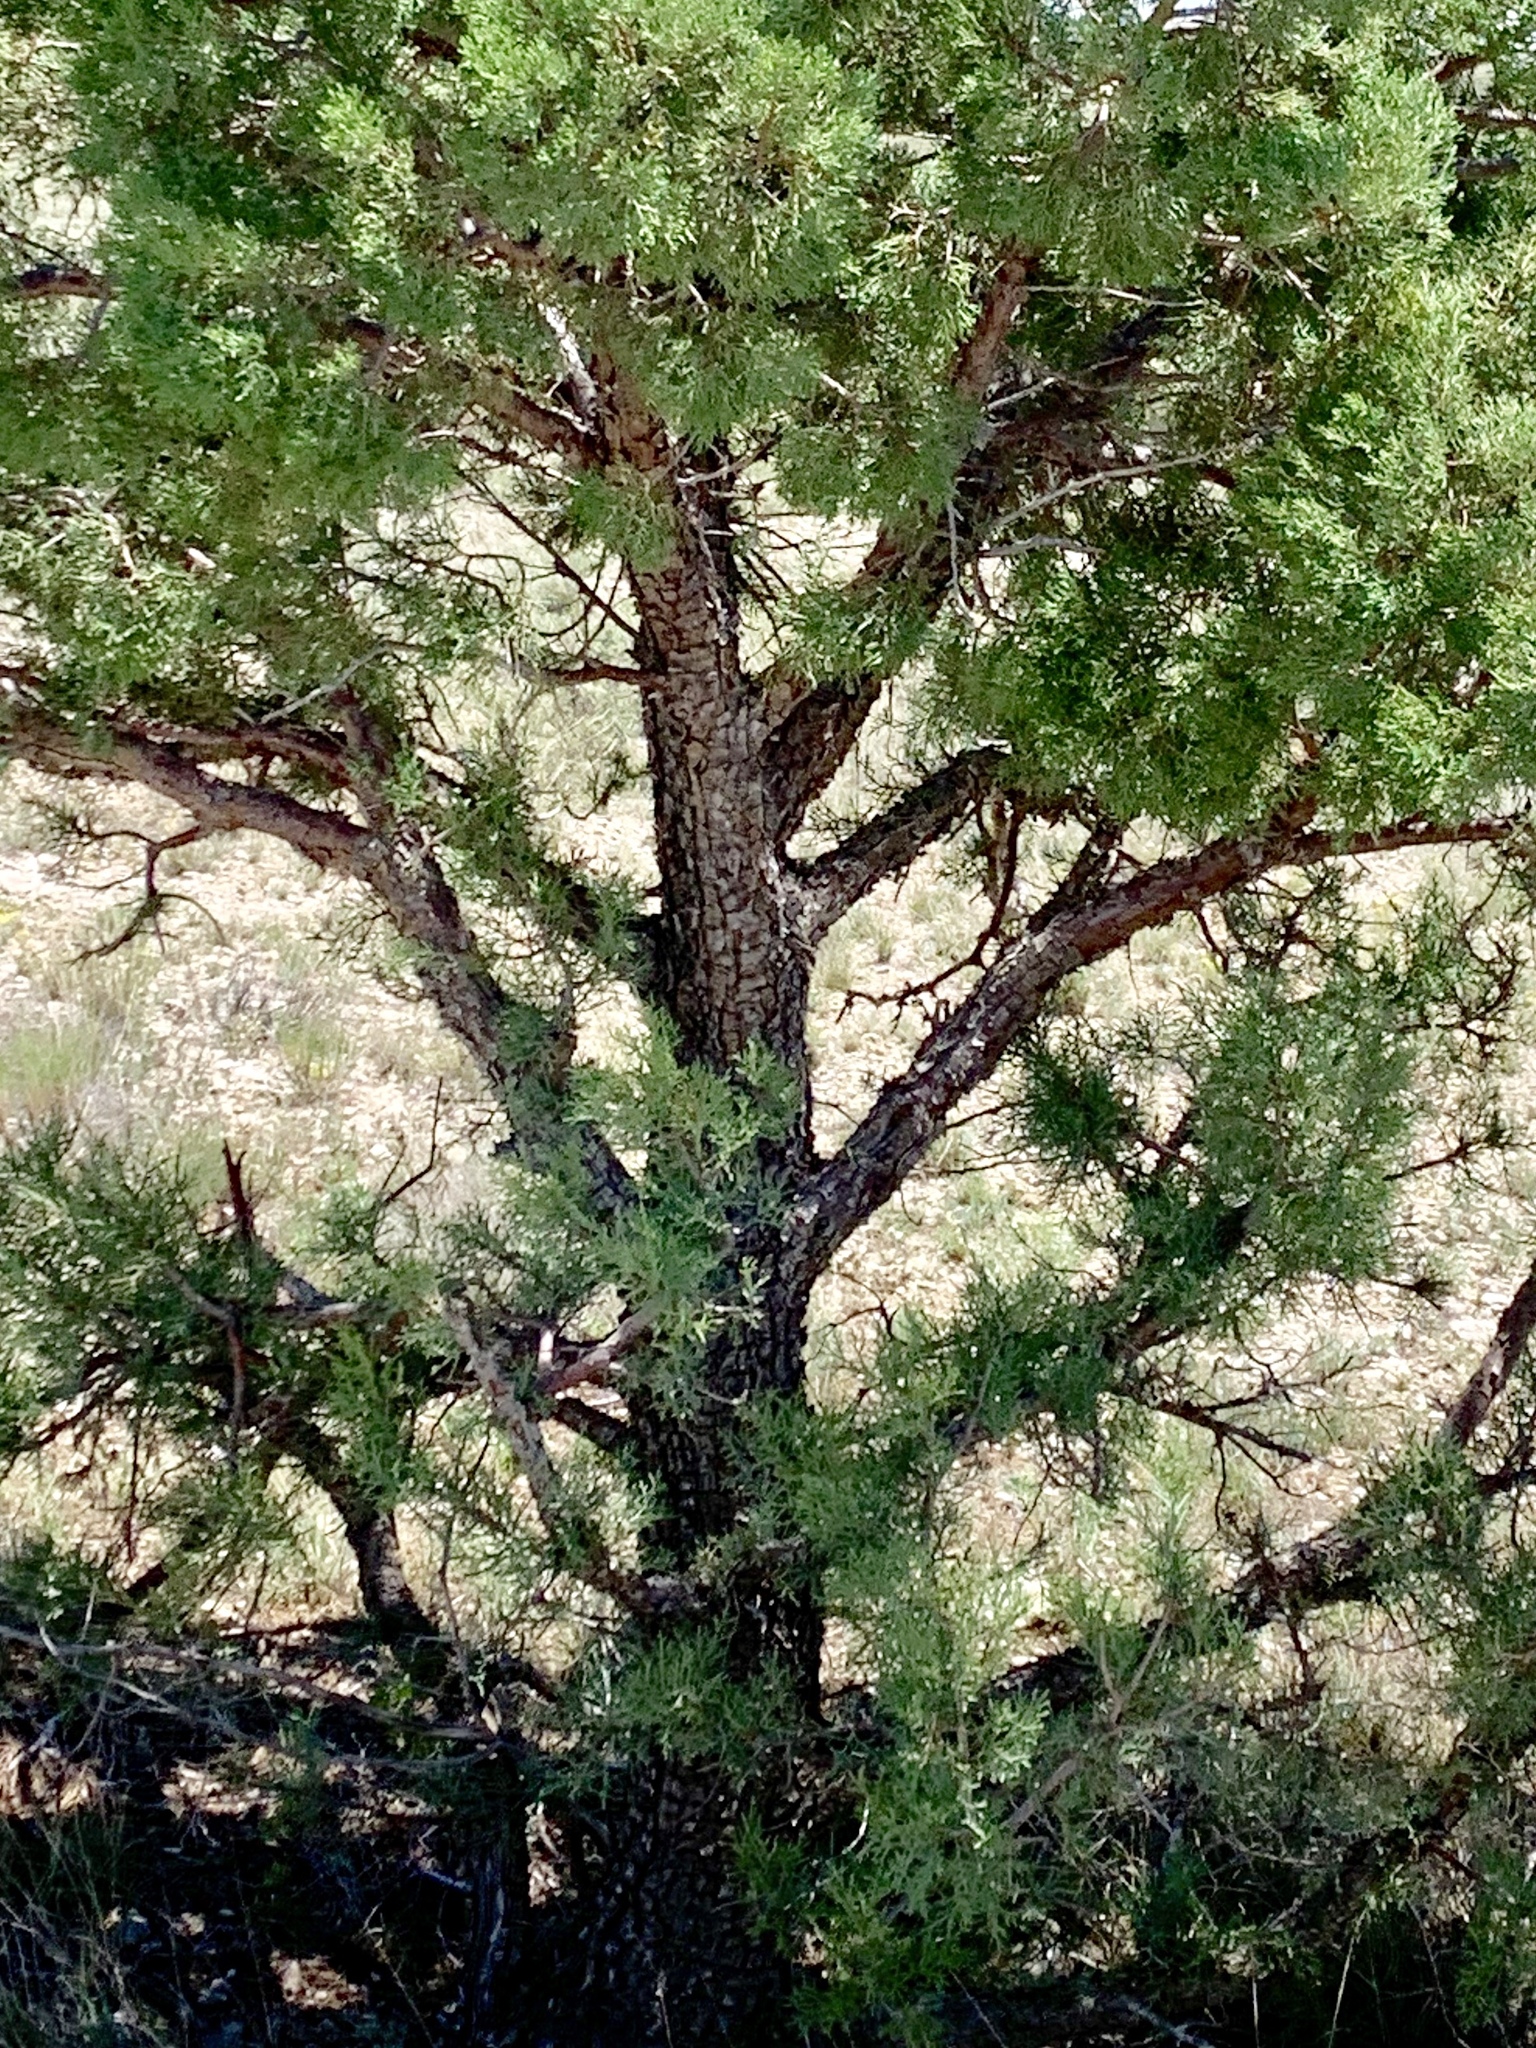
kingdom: Plantae
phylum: Tracheophyta
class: Pinopsida
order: Pinales
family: Cupressaceae
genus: Juniperus
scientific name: Juniperus deppeana
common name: Alligator juniper
